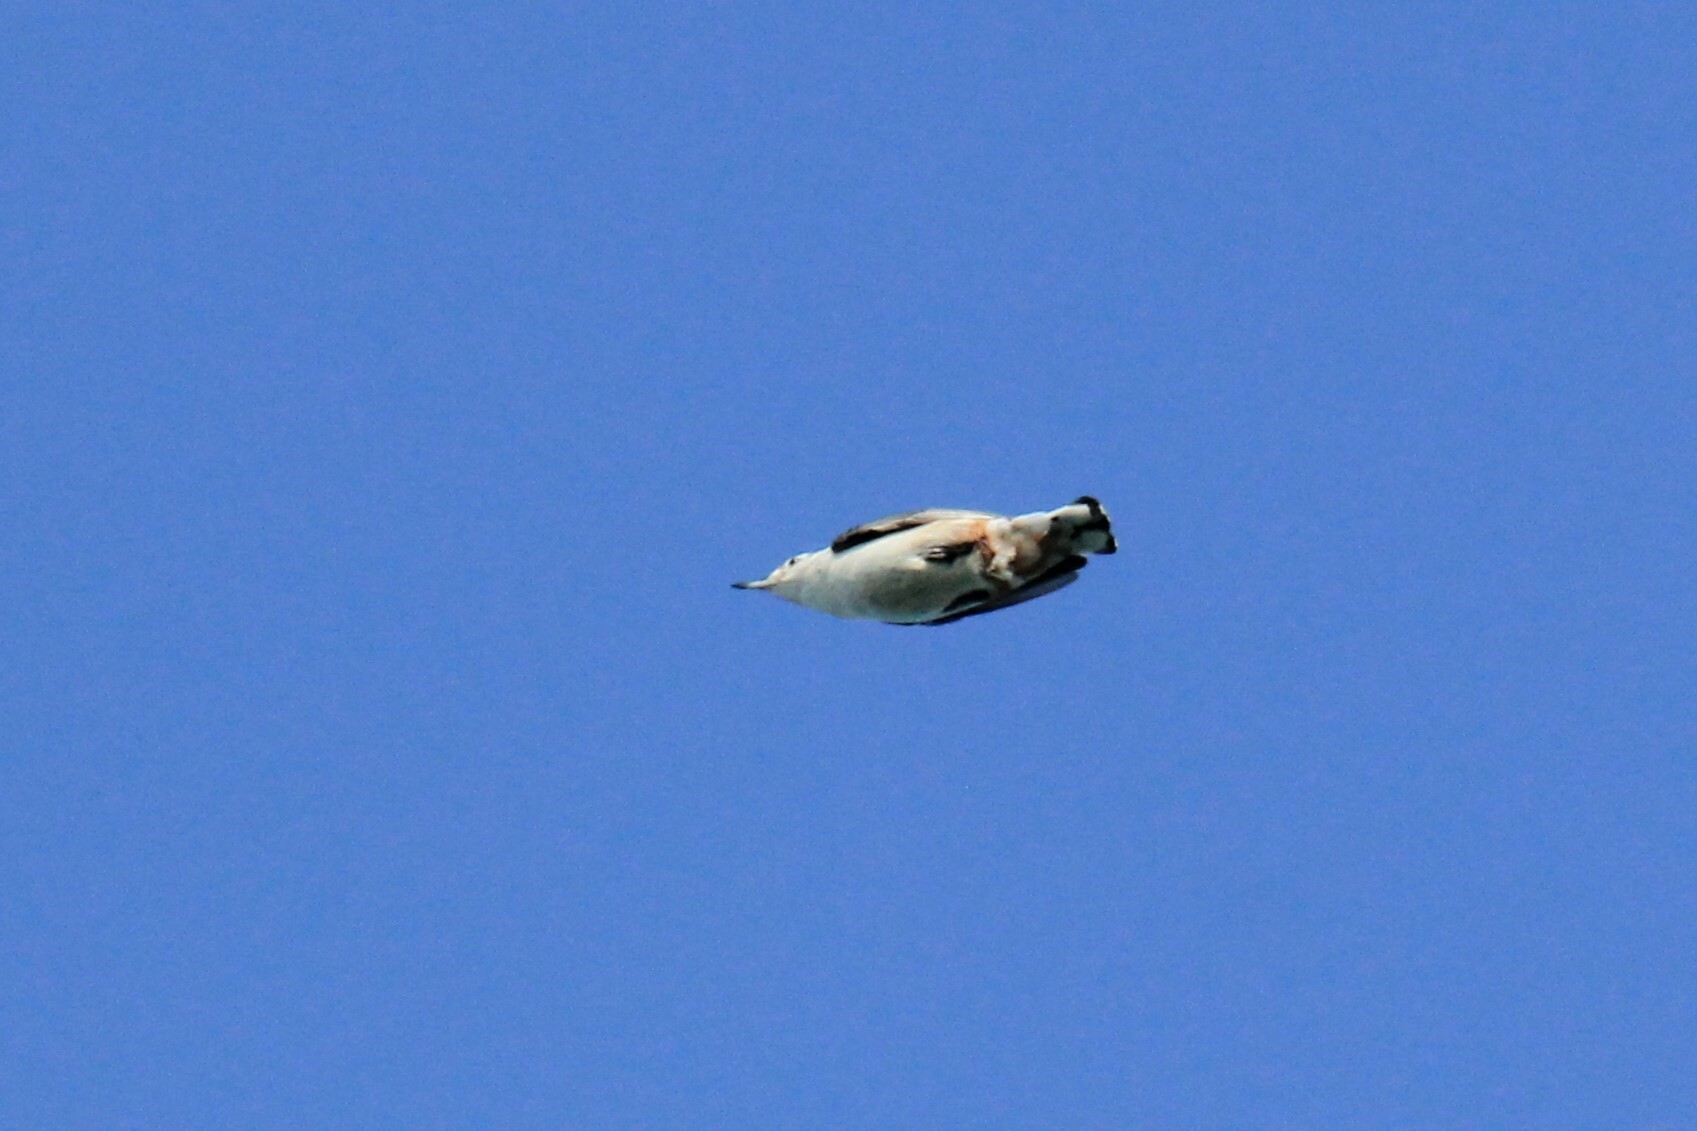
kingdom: Animalia
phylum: Chordata
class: Aves
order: Passeriformes
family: Sittidae
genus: Sitta
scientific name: Sitta carolinensis
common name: White-breasted nuthatch
